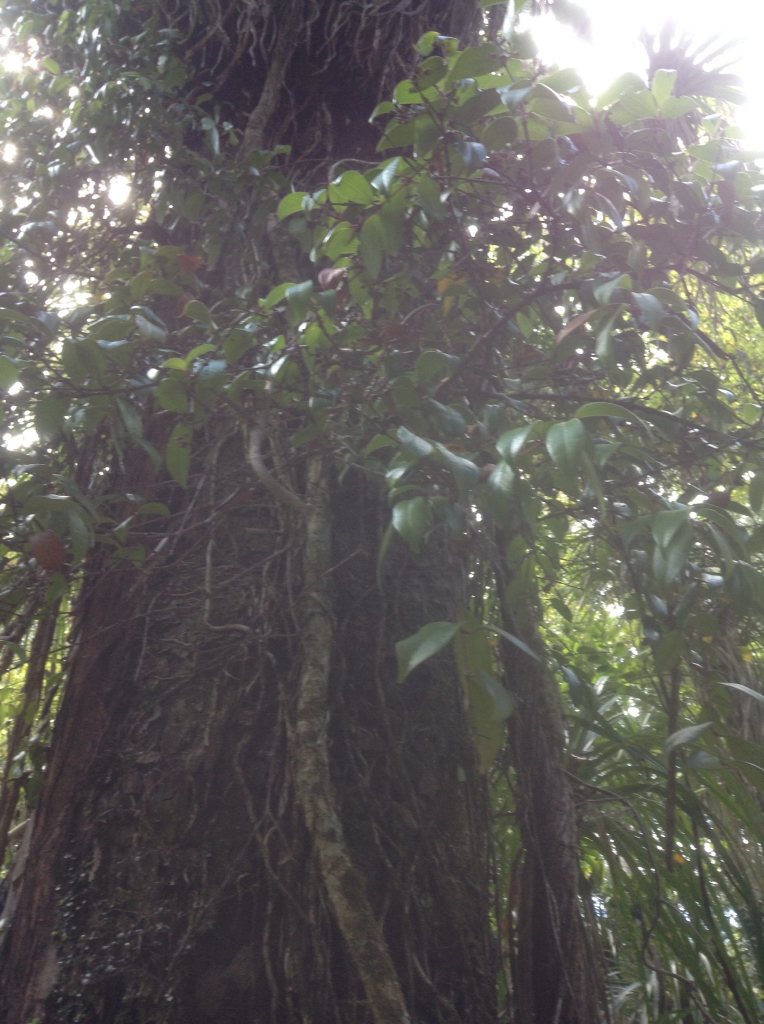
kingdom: Plantae
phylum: Tracheophyta
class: Magnoliopsida
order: Myrtales
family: Myrtaceae
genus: Metrosideros
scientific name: Metrosideros albiflora
